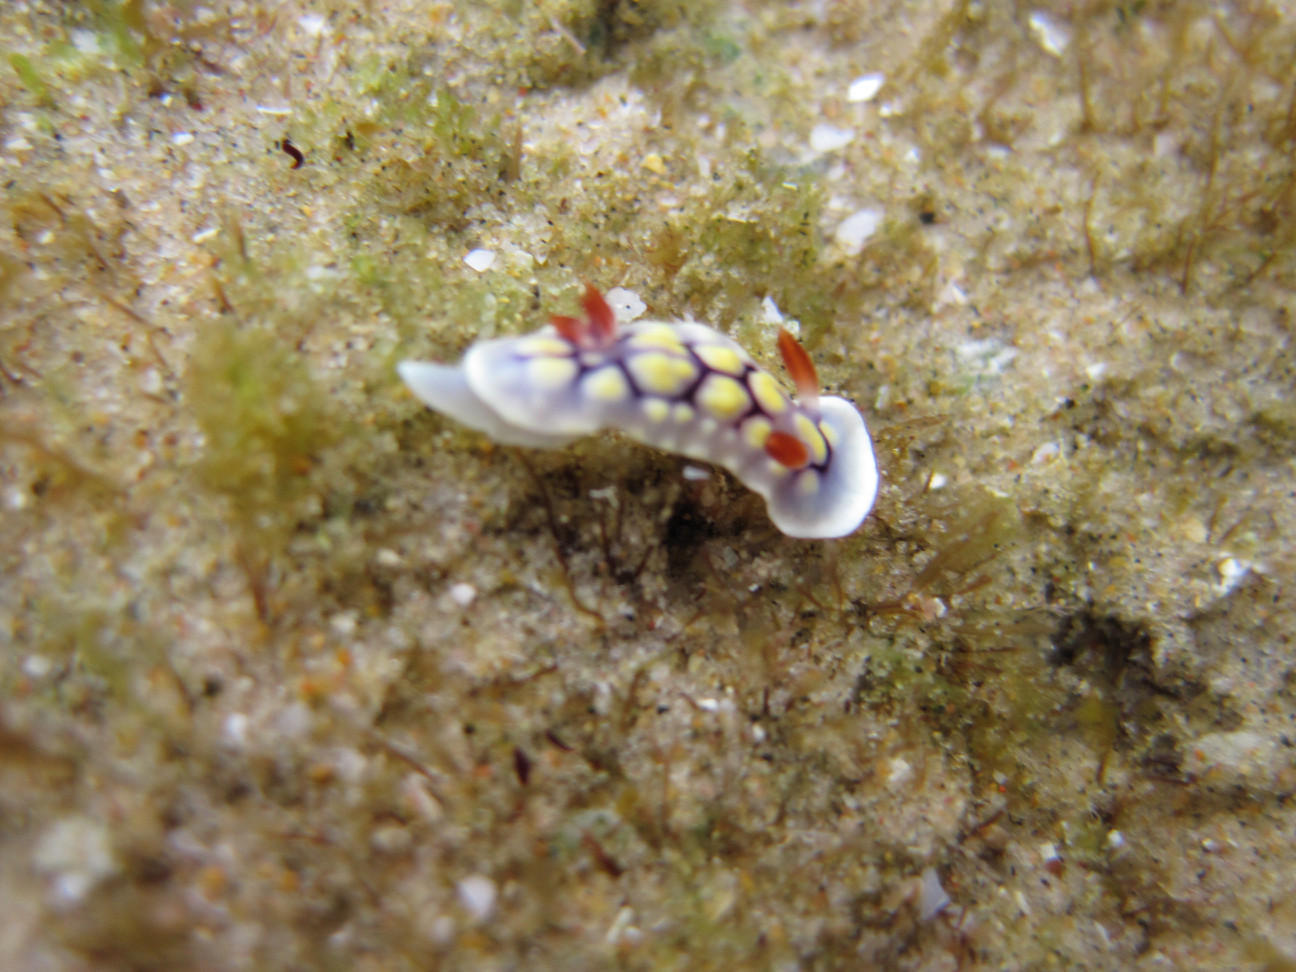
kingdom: Animalia
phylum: Mollusca
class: Gastropoda
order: Nudibranchia
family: Chromodorididae
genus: Goniobranchus
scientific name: Goniobranchus conchyliatus
